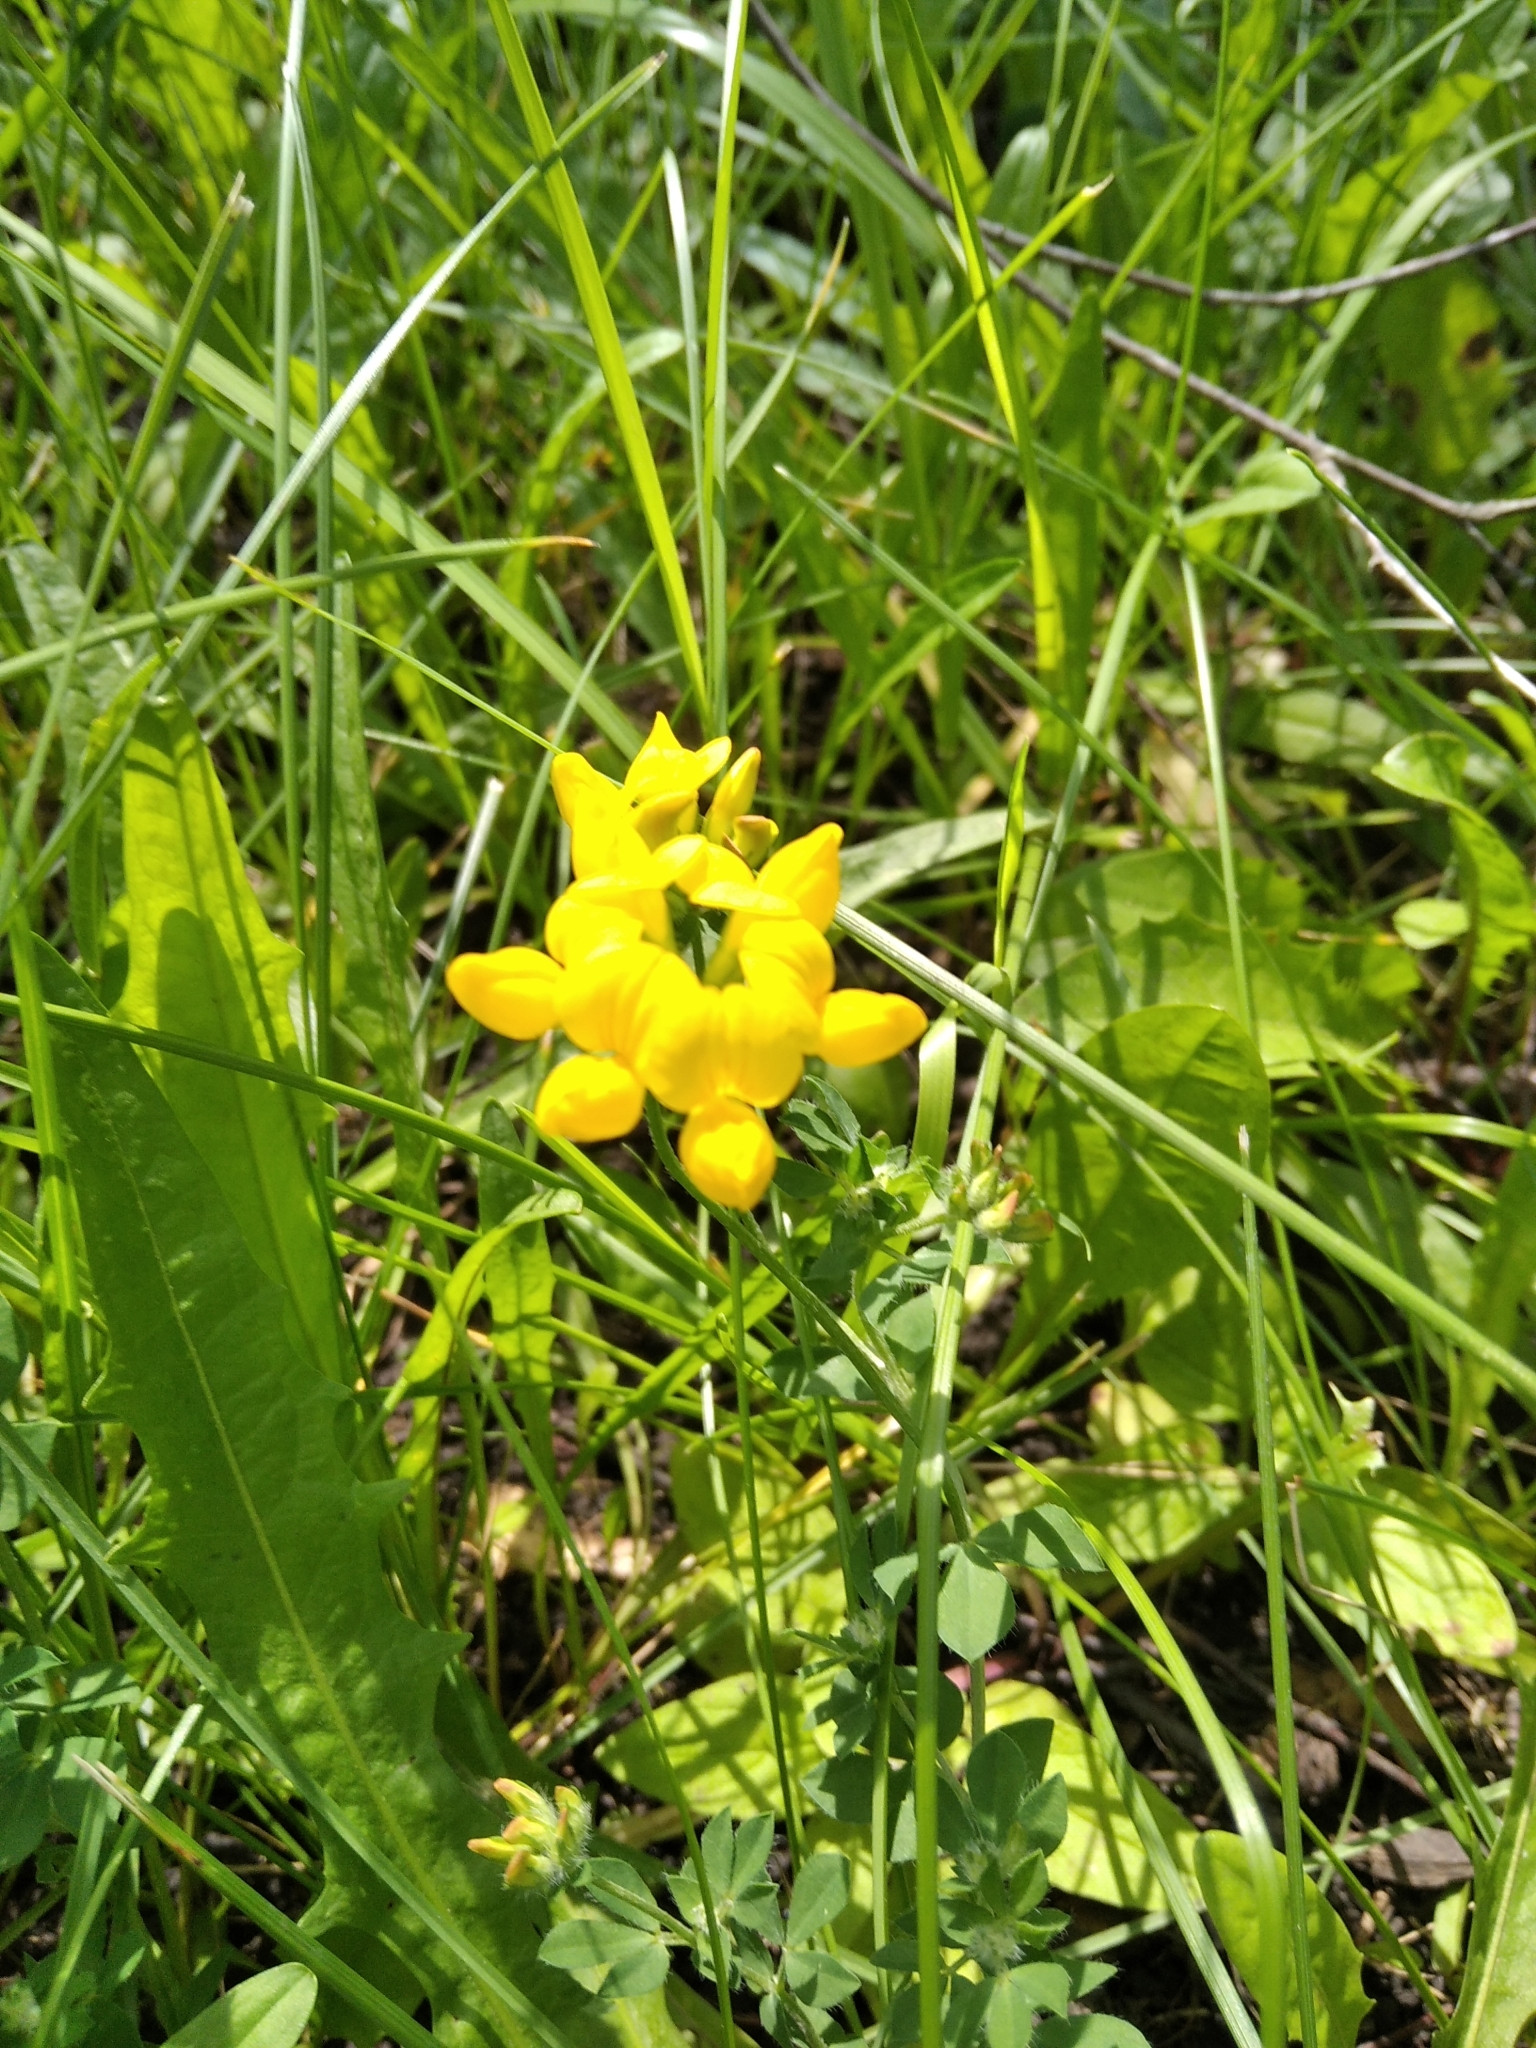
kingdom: Plantae
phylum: Tracheophyta
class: Magnoliopsida
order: Fabales
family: Fabaceae
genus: Lotus
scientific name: Lotus corniculatus
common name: Common bird's-foot-trefoil
